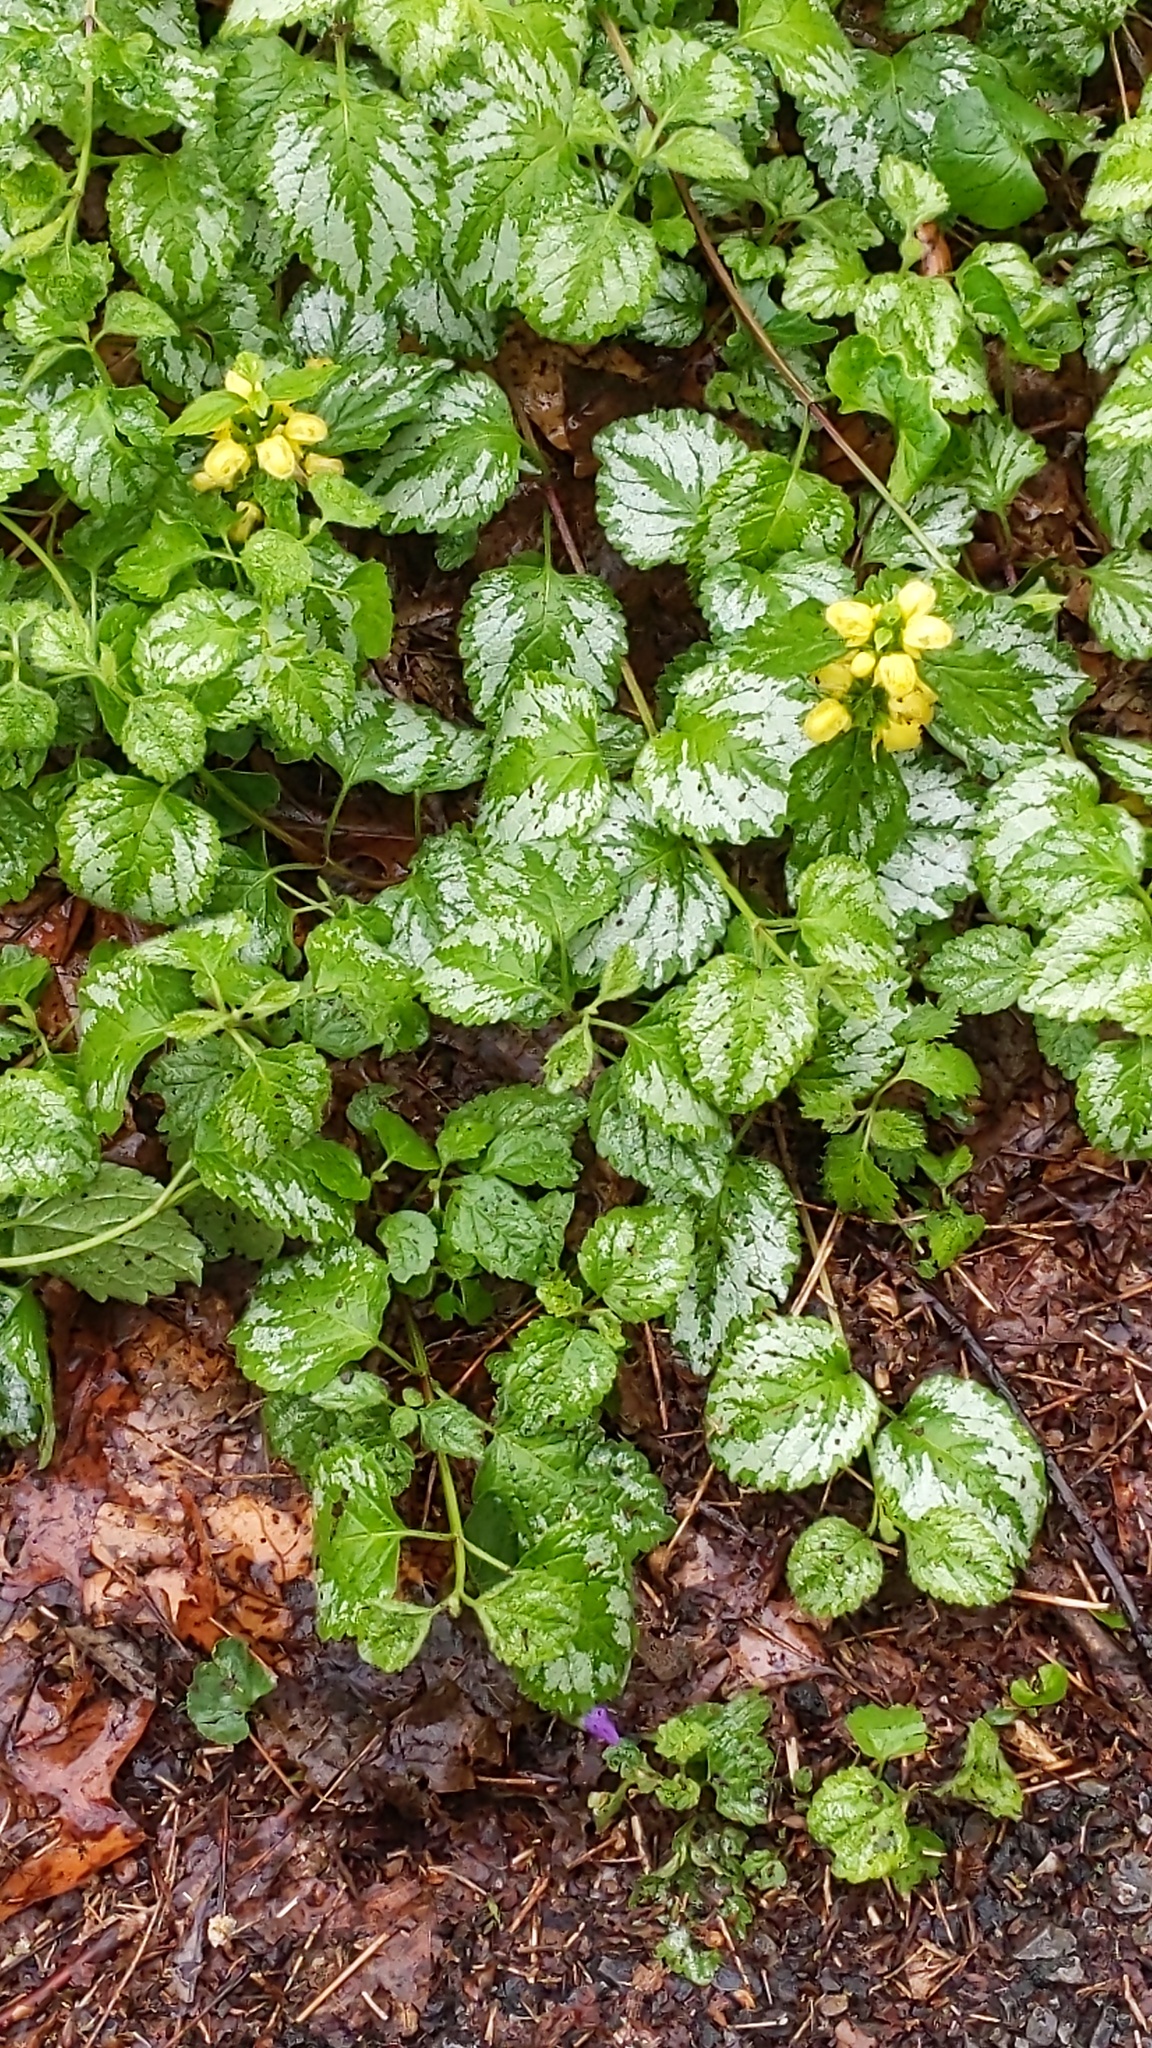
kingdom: Plantae
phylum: Tracheophyta
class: Magnoliopsida
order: Lamiales
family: Lamiaceae
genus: Lamium
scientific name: Lamium galeobdolon
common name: Yellow archangel
